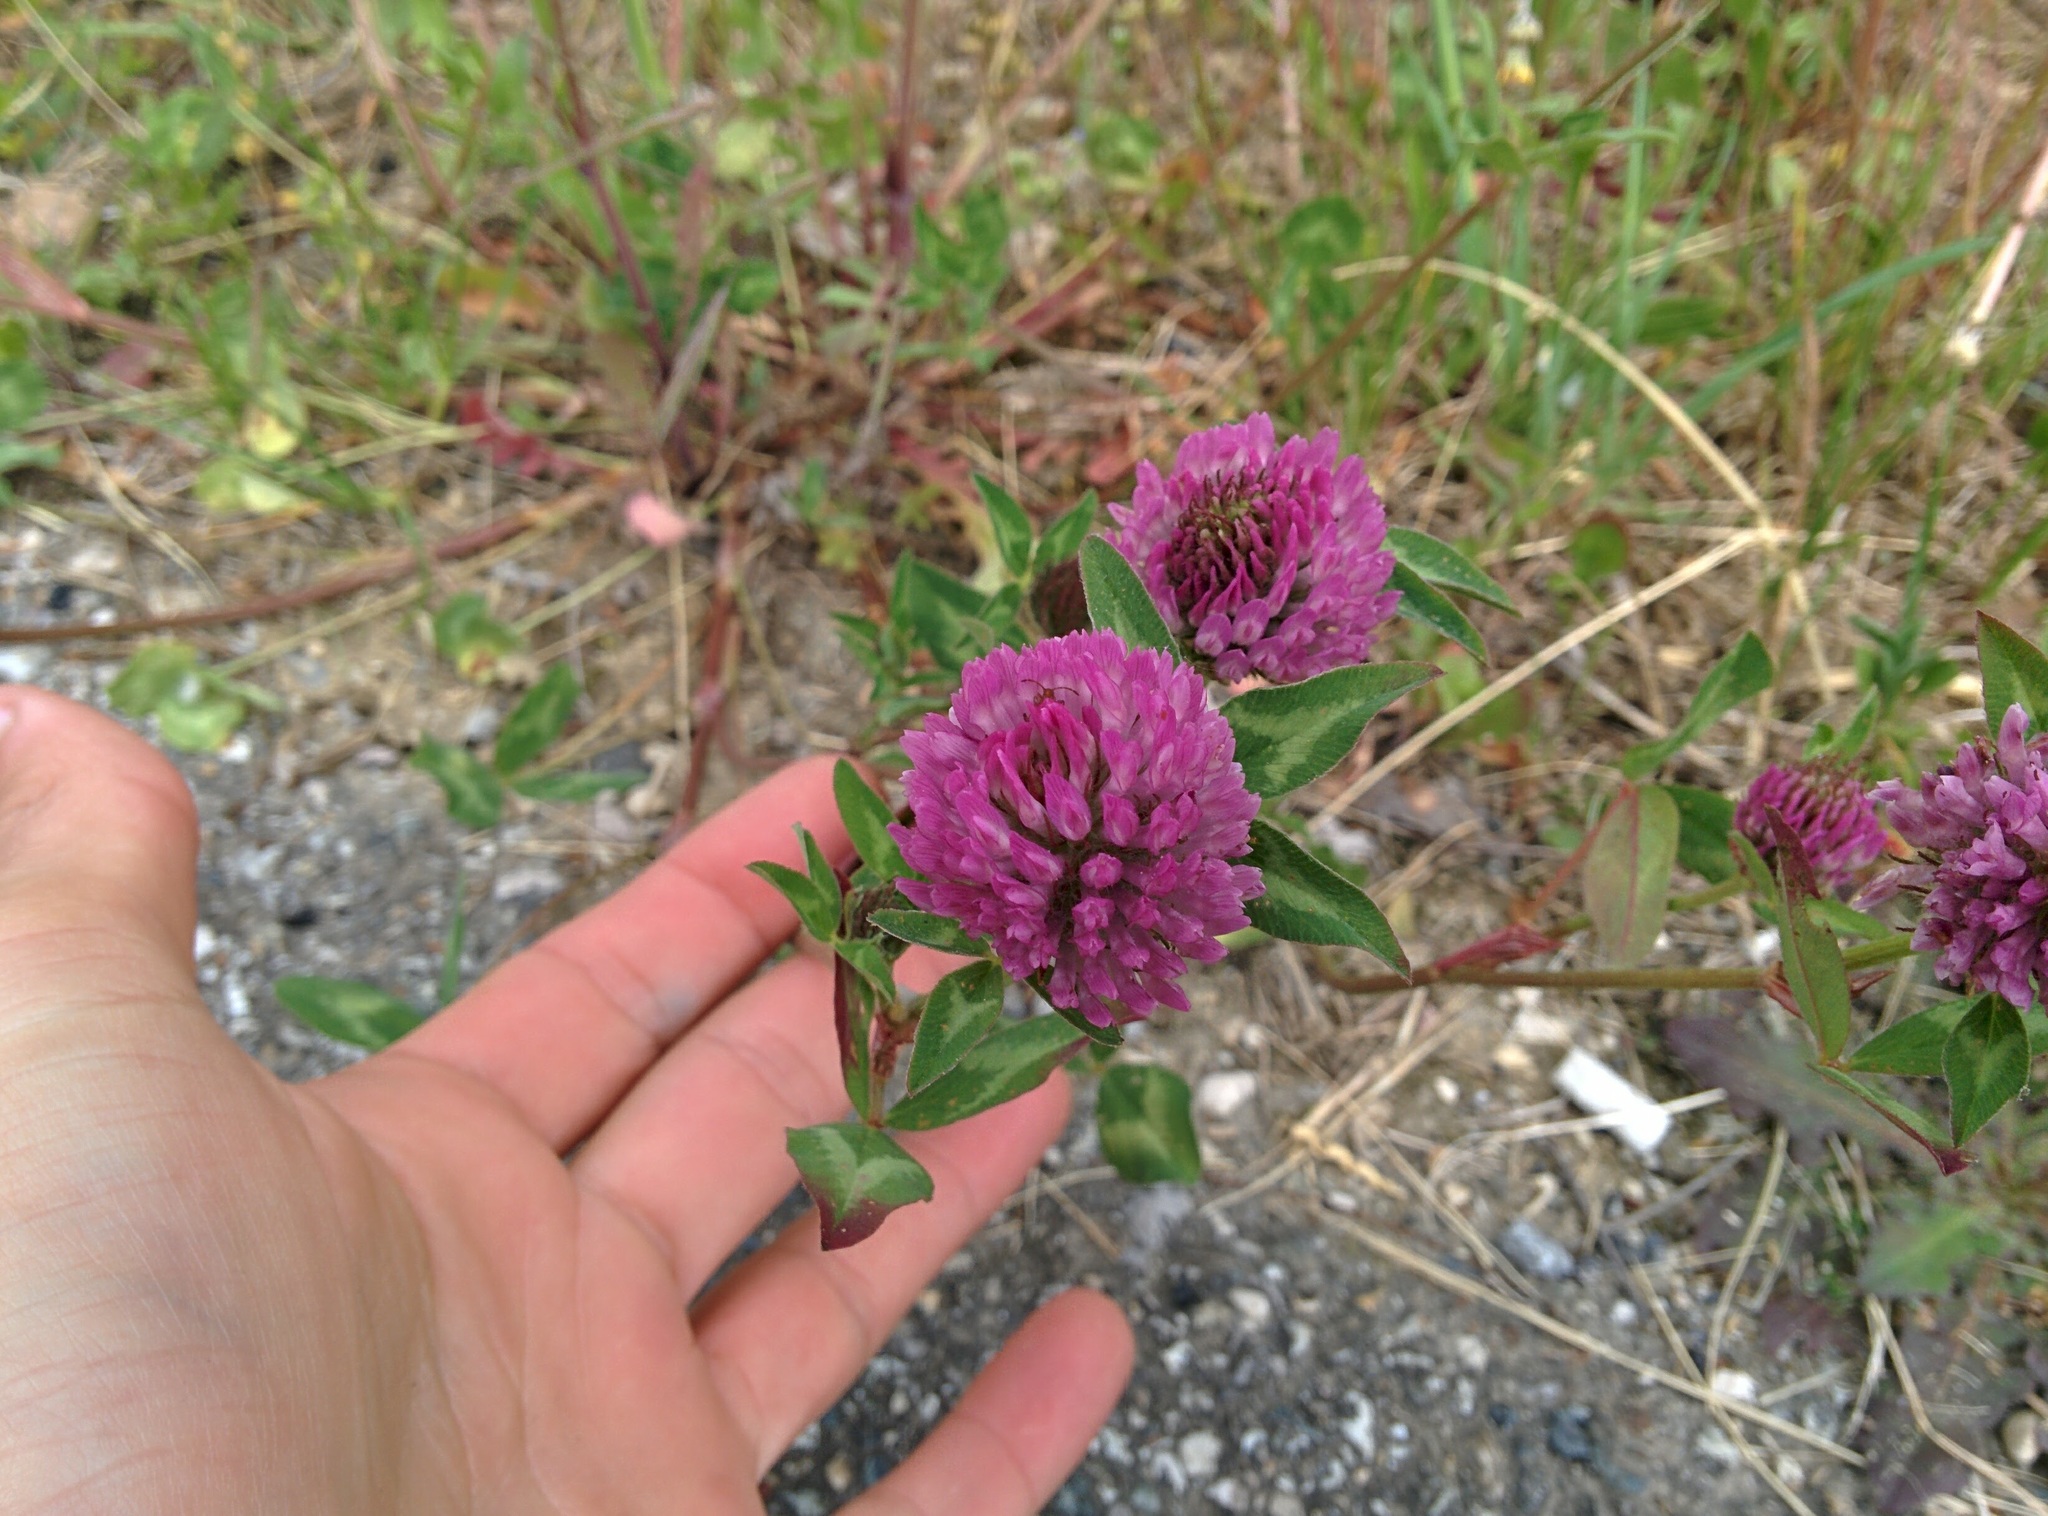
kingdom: Plantae
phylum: Tracheophyta
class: Magnoliopsida
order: Fabales
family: Fabaceae
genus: Trifolium
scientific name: Trifolium pratense
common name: Red clover
